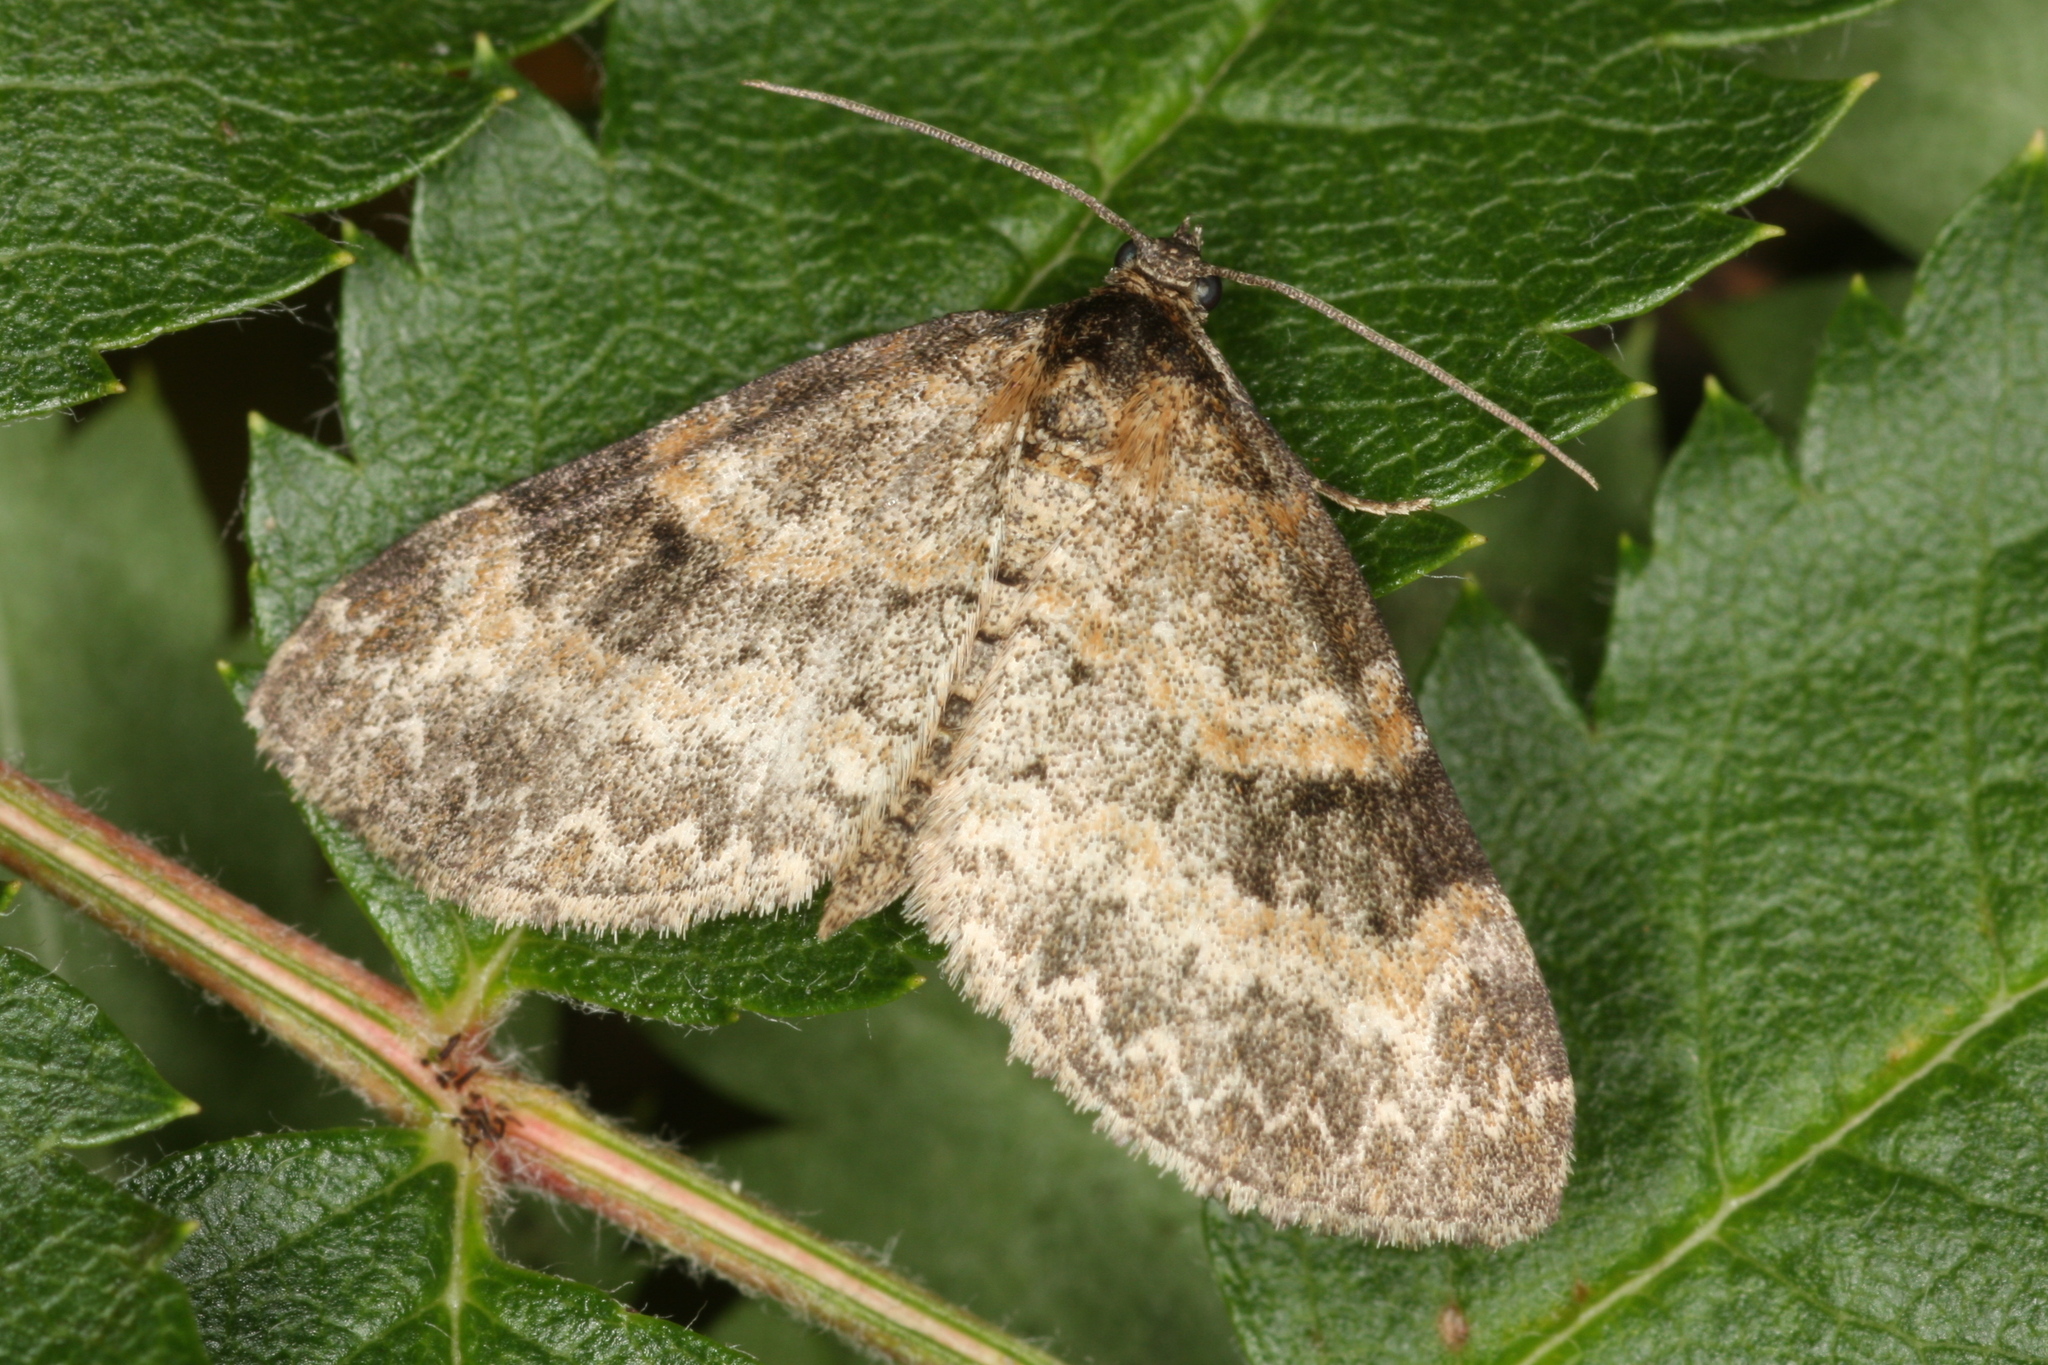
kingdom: Animalia
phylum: Arthropoda
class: Insecta
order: Lepidoptera
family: Geometridae
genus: Pterapherapteryx
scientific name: Pterapherapteryx sexalata
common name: Small seraphim
